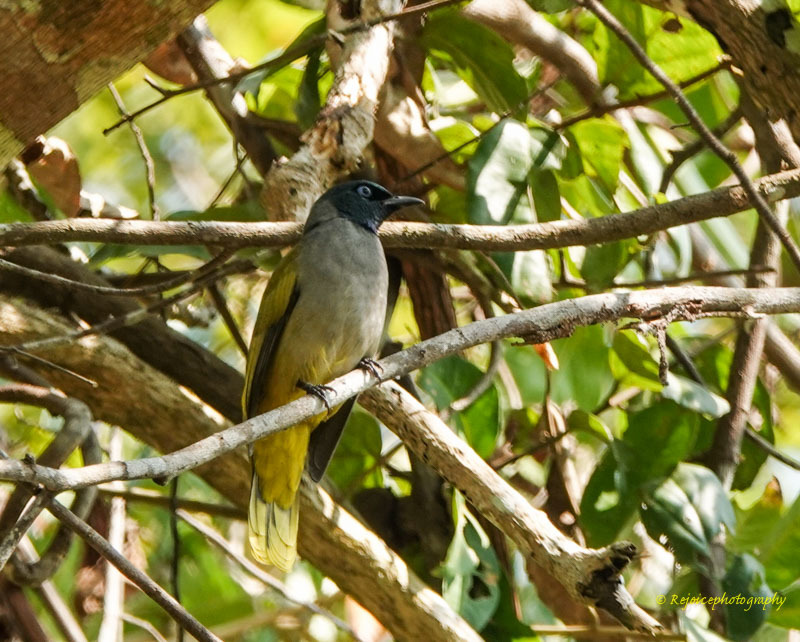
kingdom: Animalia
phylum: Chordata
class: Aves
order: Passeriformes
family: Pycnonotidae
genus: Microtarsus
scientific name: Microtarsus
